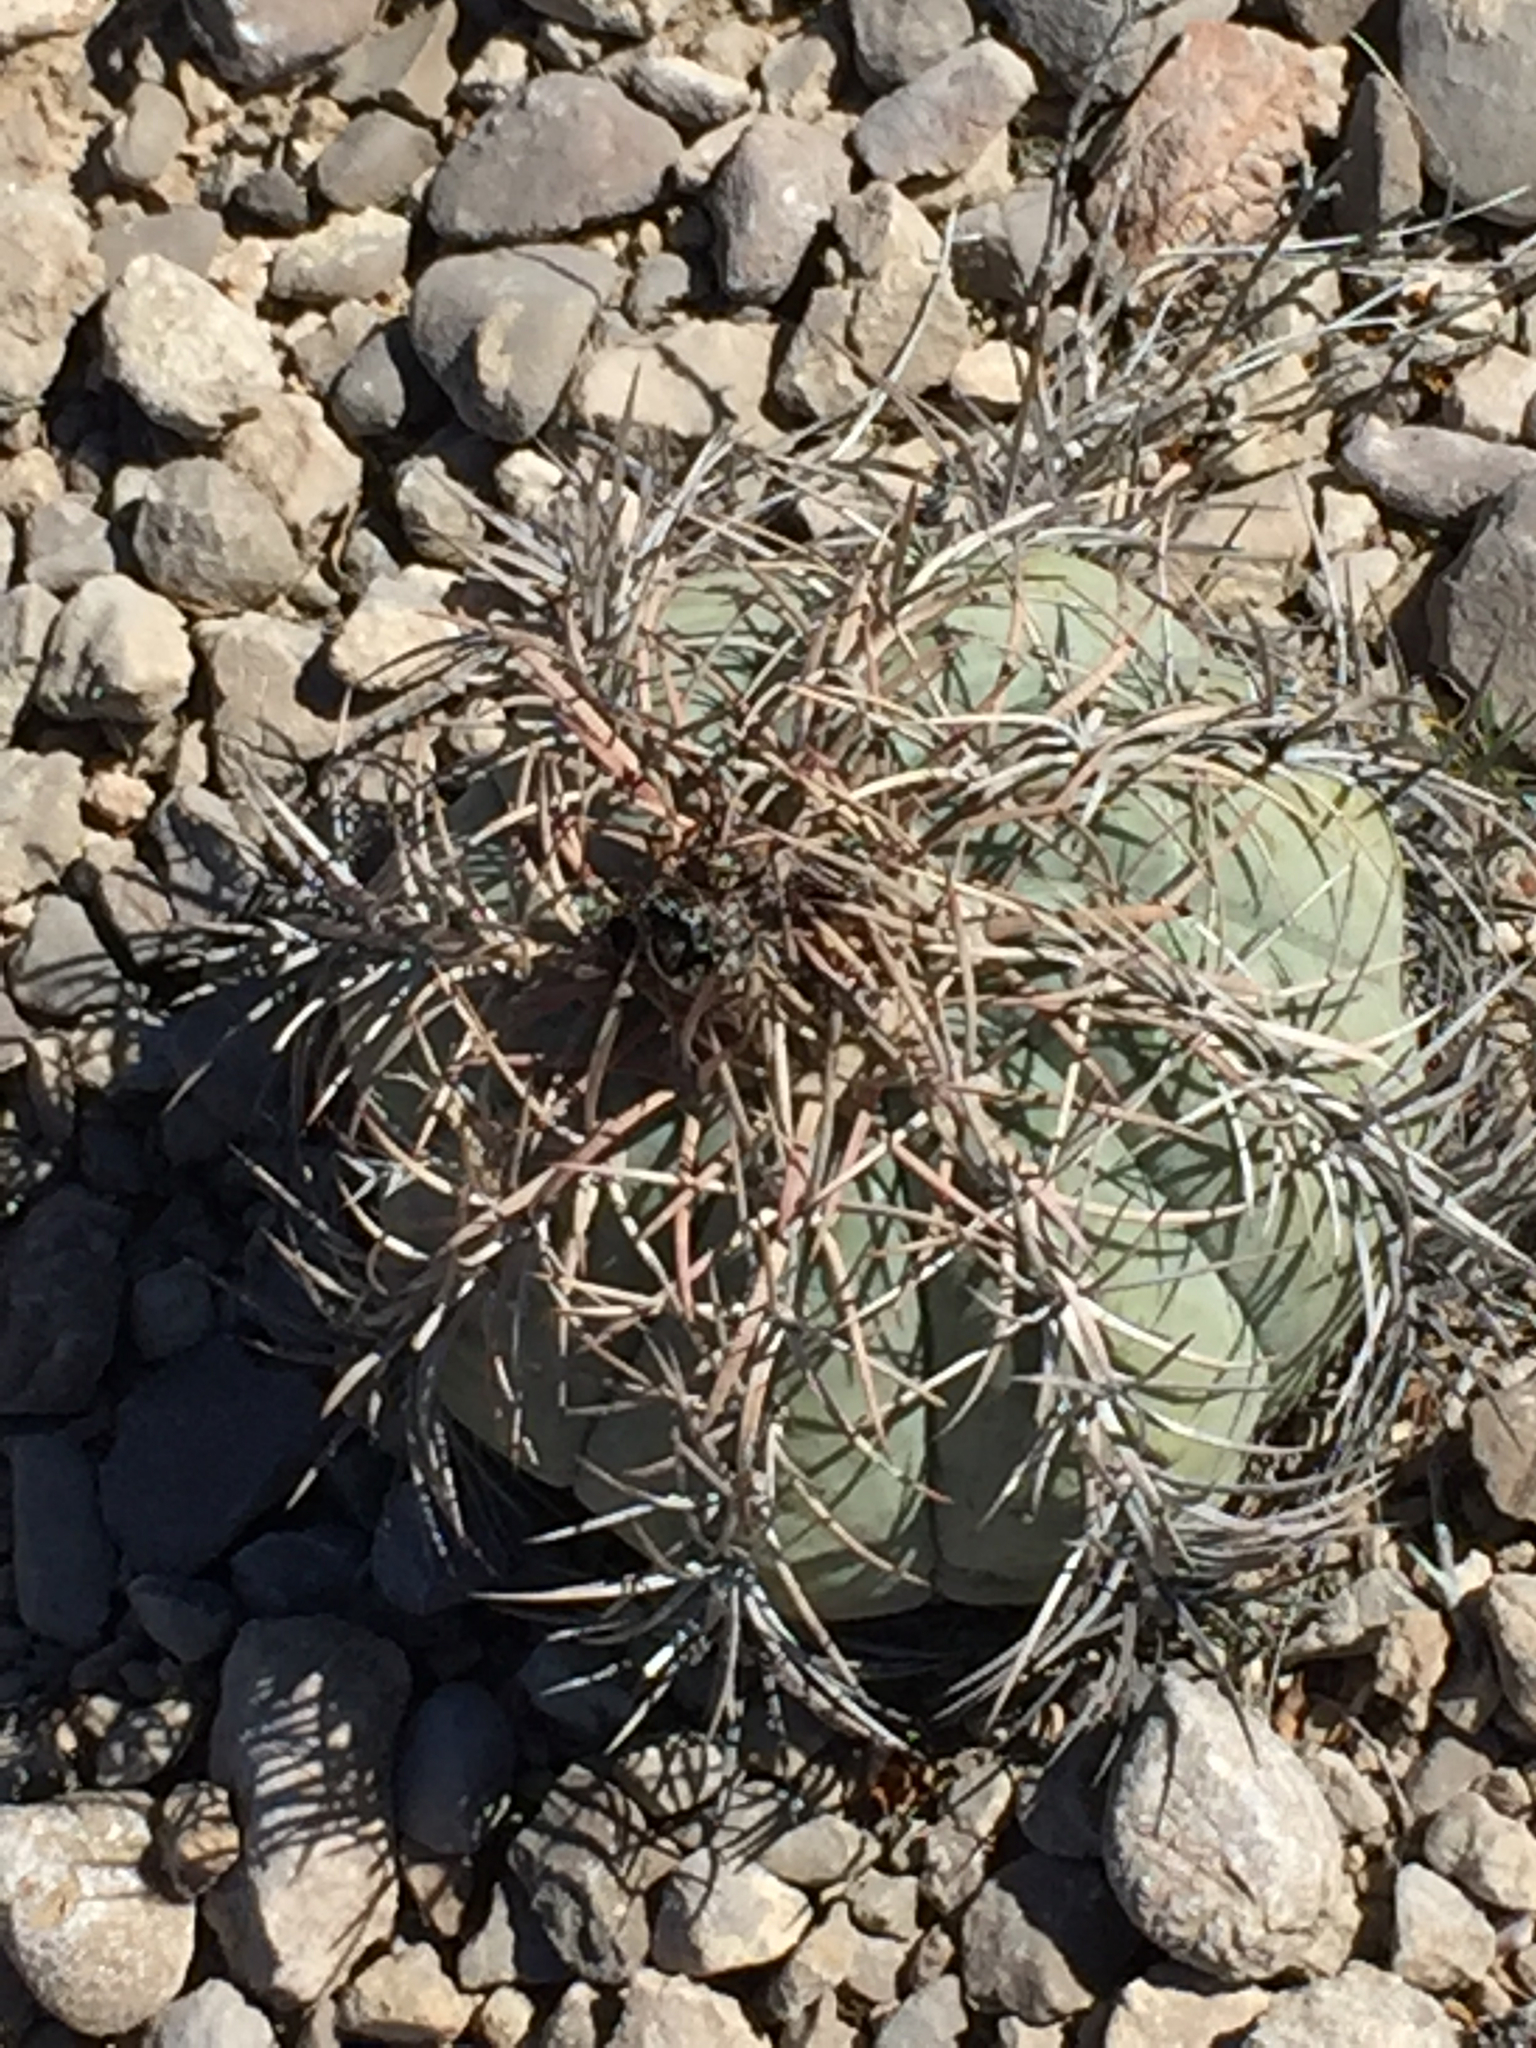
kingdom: Plantae
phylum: Tracheophyta
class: Magnoliopsida
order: Caryophyllales
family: Cactaceae
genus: Echinocactus
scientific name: Echinocactus horizonthalonius
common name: Devilshead
